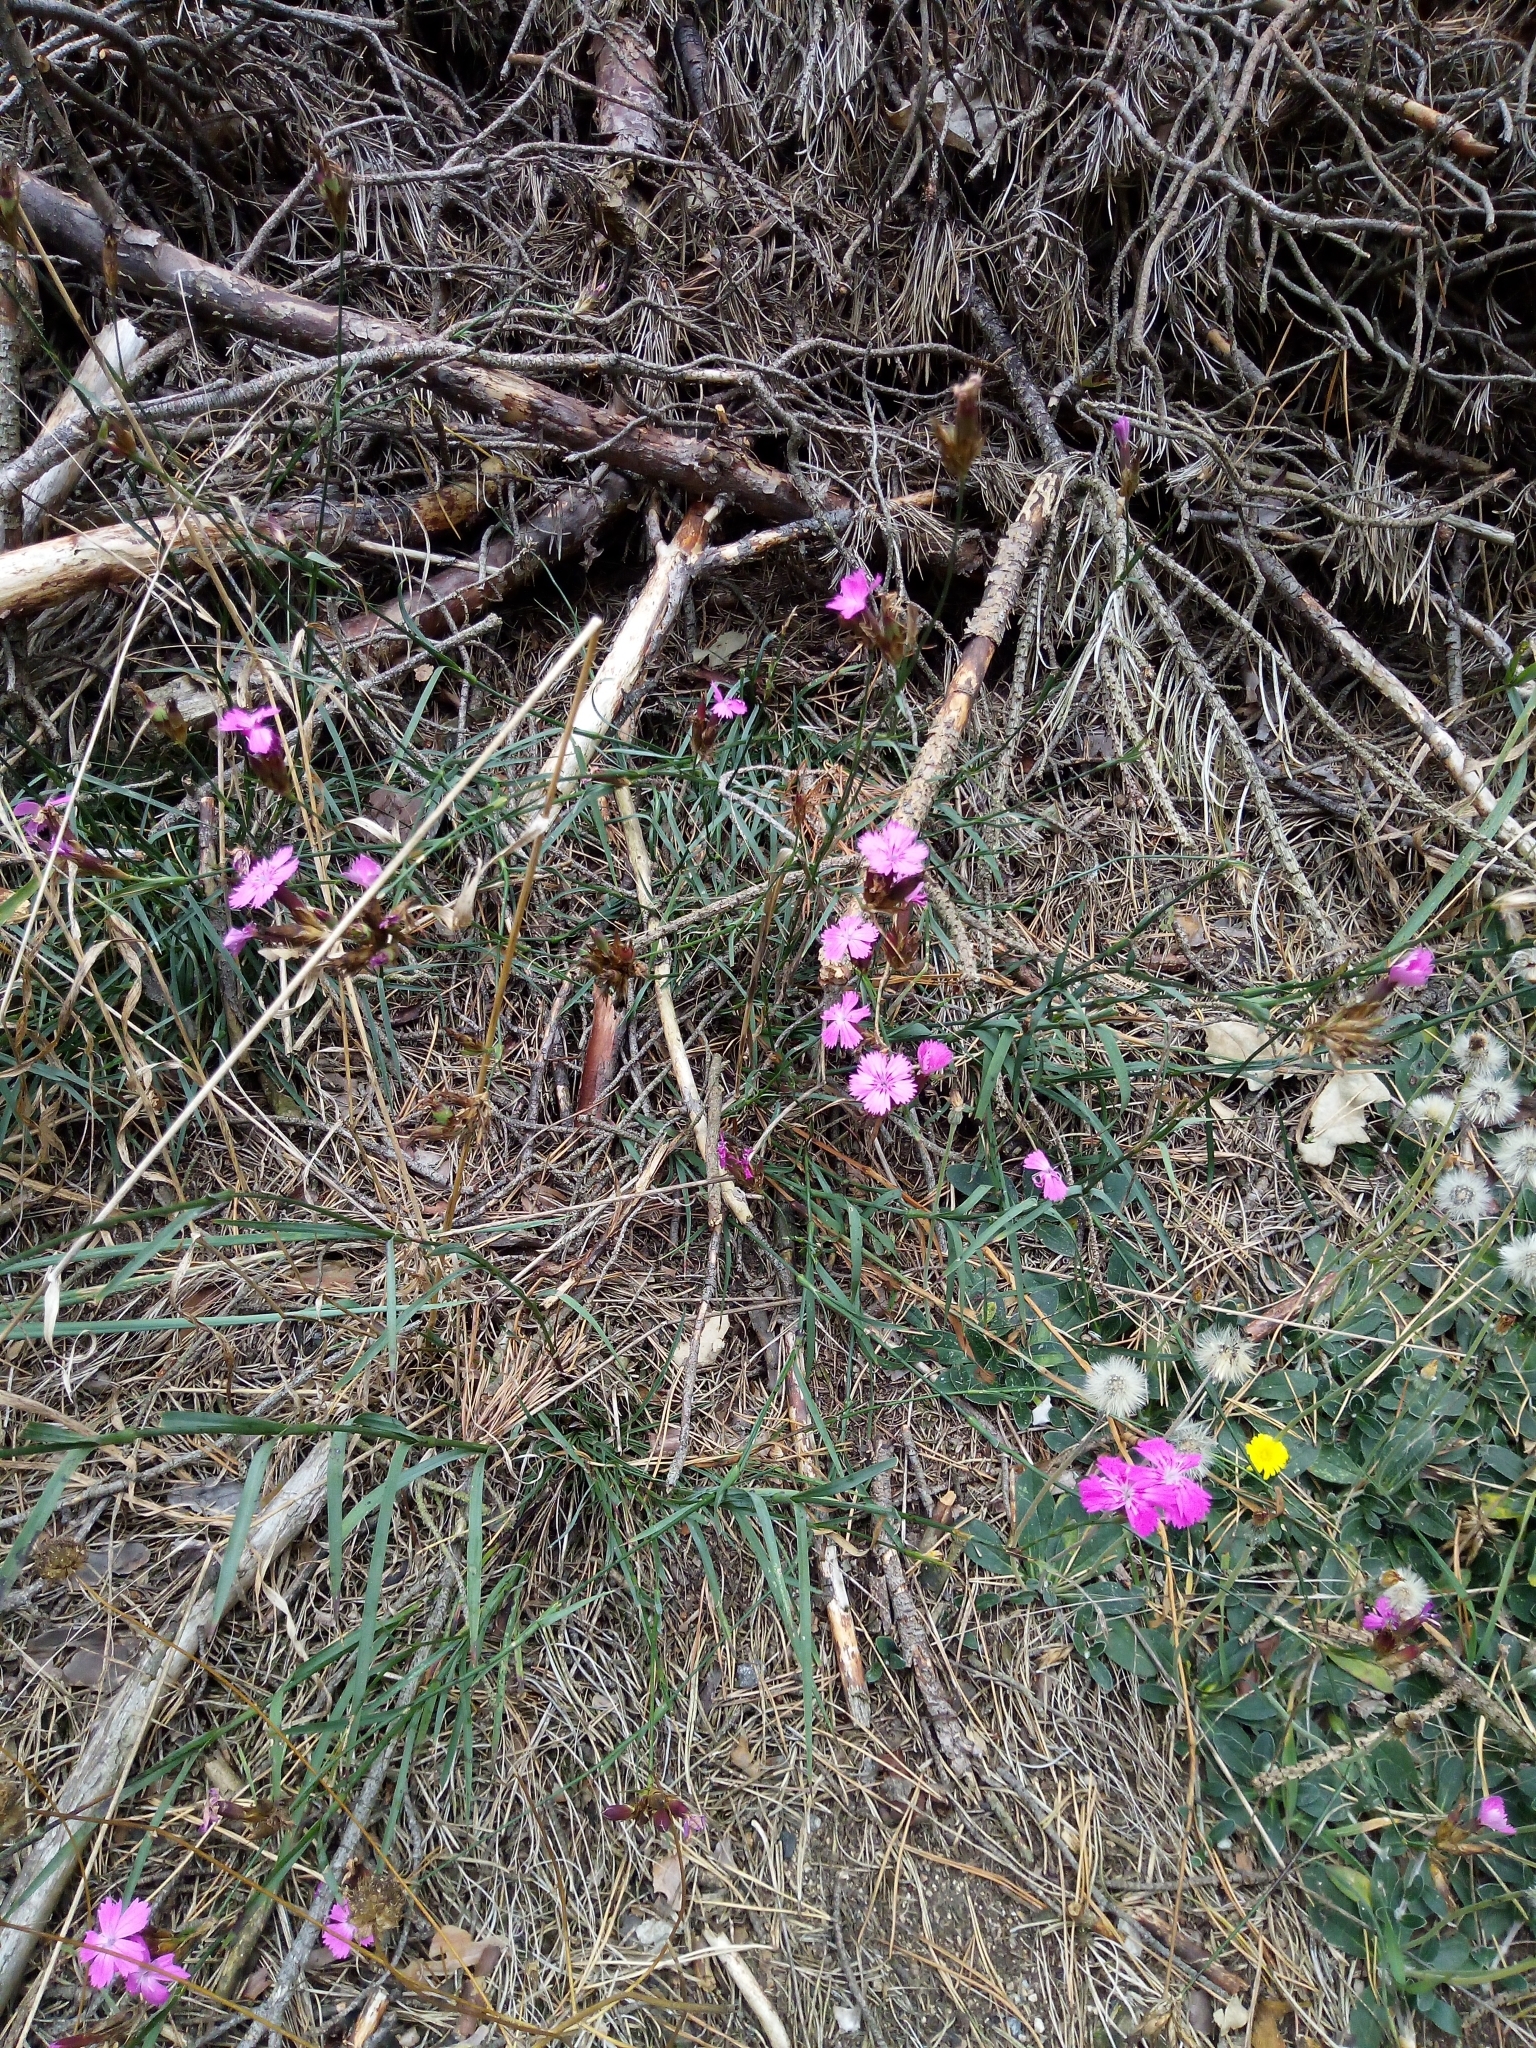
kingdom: Plantae
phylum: Tracheophyta
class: Magnoliopsida
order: Caryophyllales
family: Caryophyllaceae
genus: Dianthus
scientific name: Dianthus carthusianorum
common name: Carthusian pink
